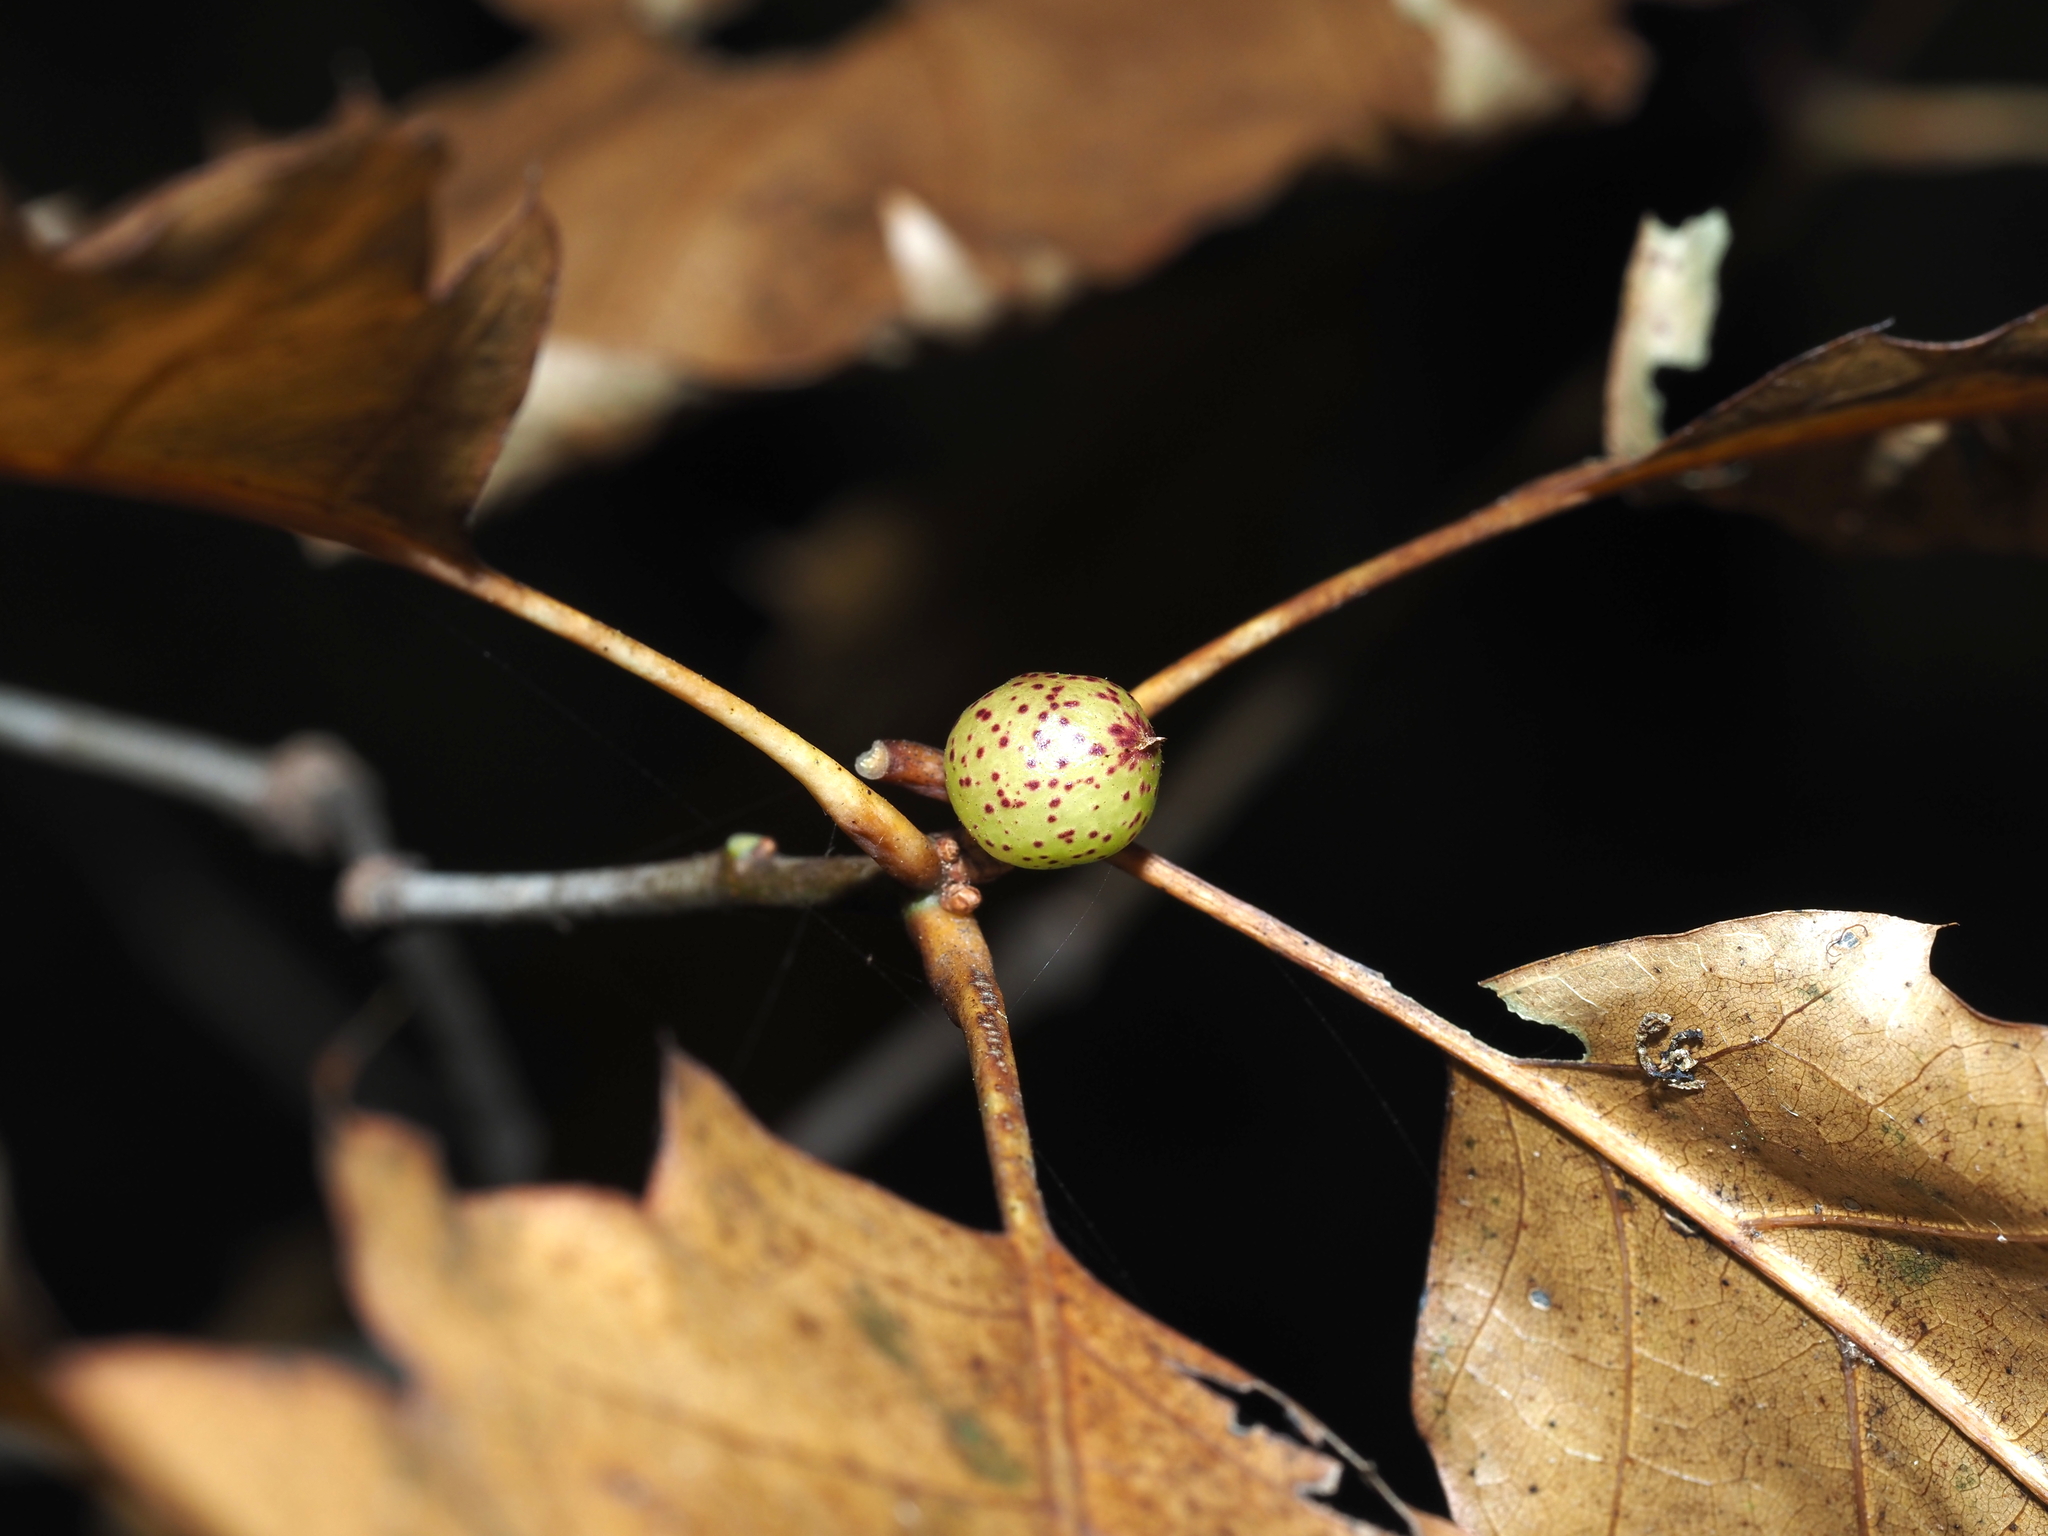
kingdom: Animalia
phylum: Arthropoda
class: Insecta
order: Hymenoptera
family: Cynipidae
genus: Amphibolips
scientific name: Amphibolips
